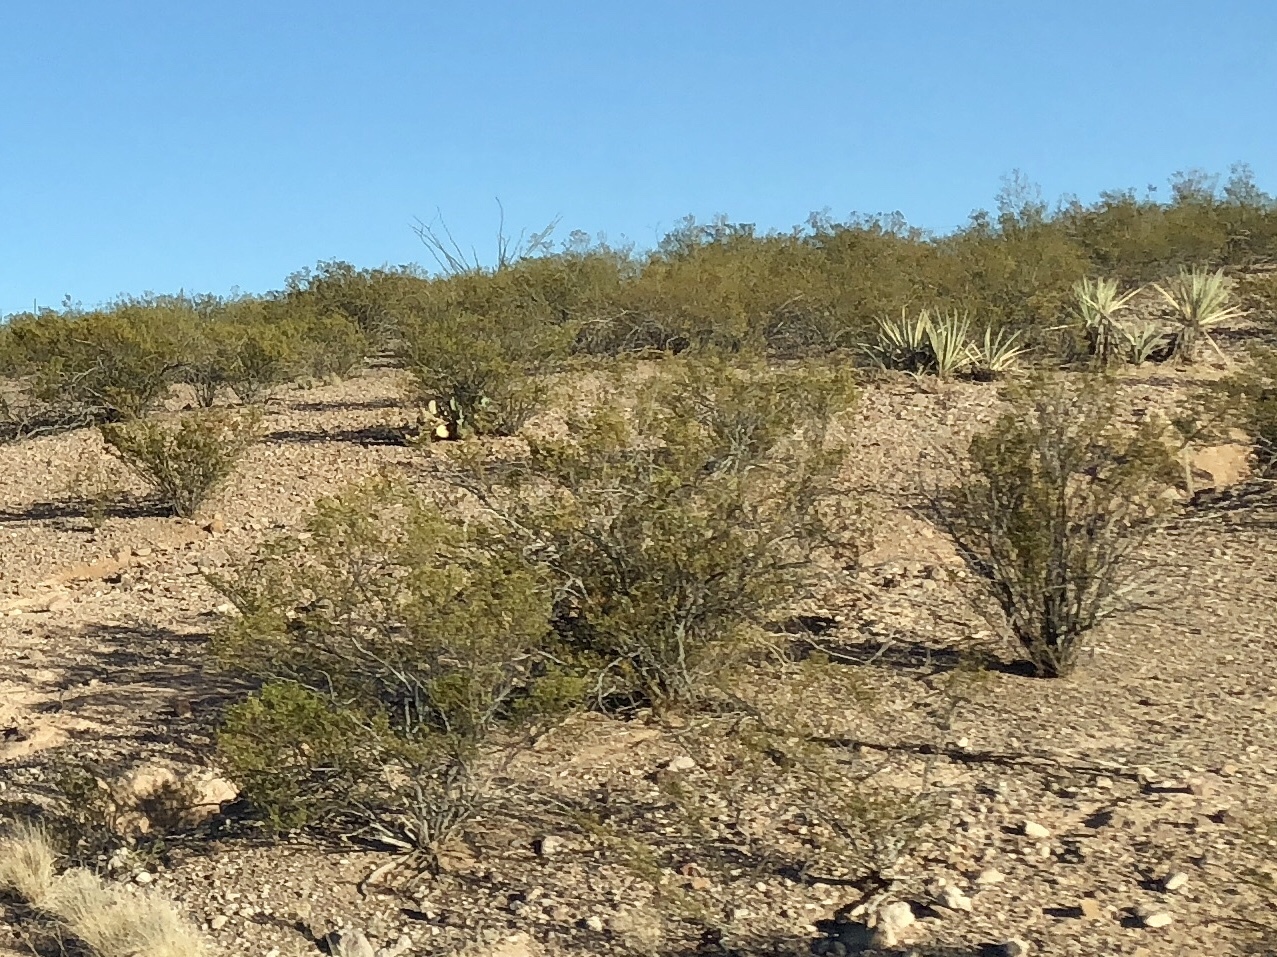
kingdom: Plantae
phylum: Tracheophyta
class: Magnoliopsida
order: Zygophyllales
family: Zygophyllaceae
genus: Larrea
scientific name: Larrea tridentata
